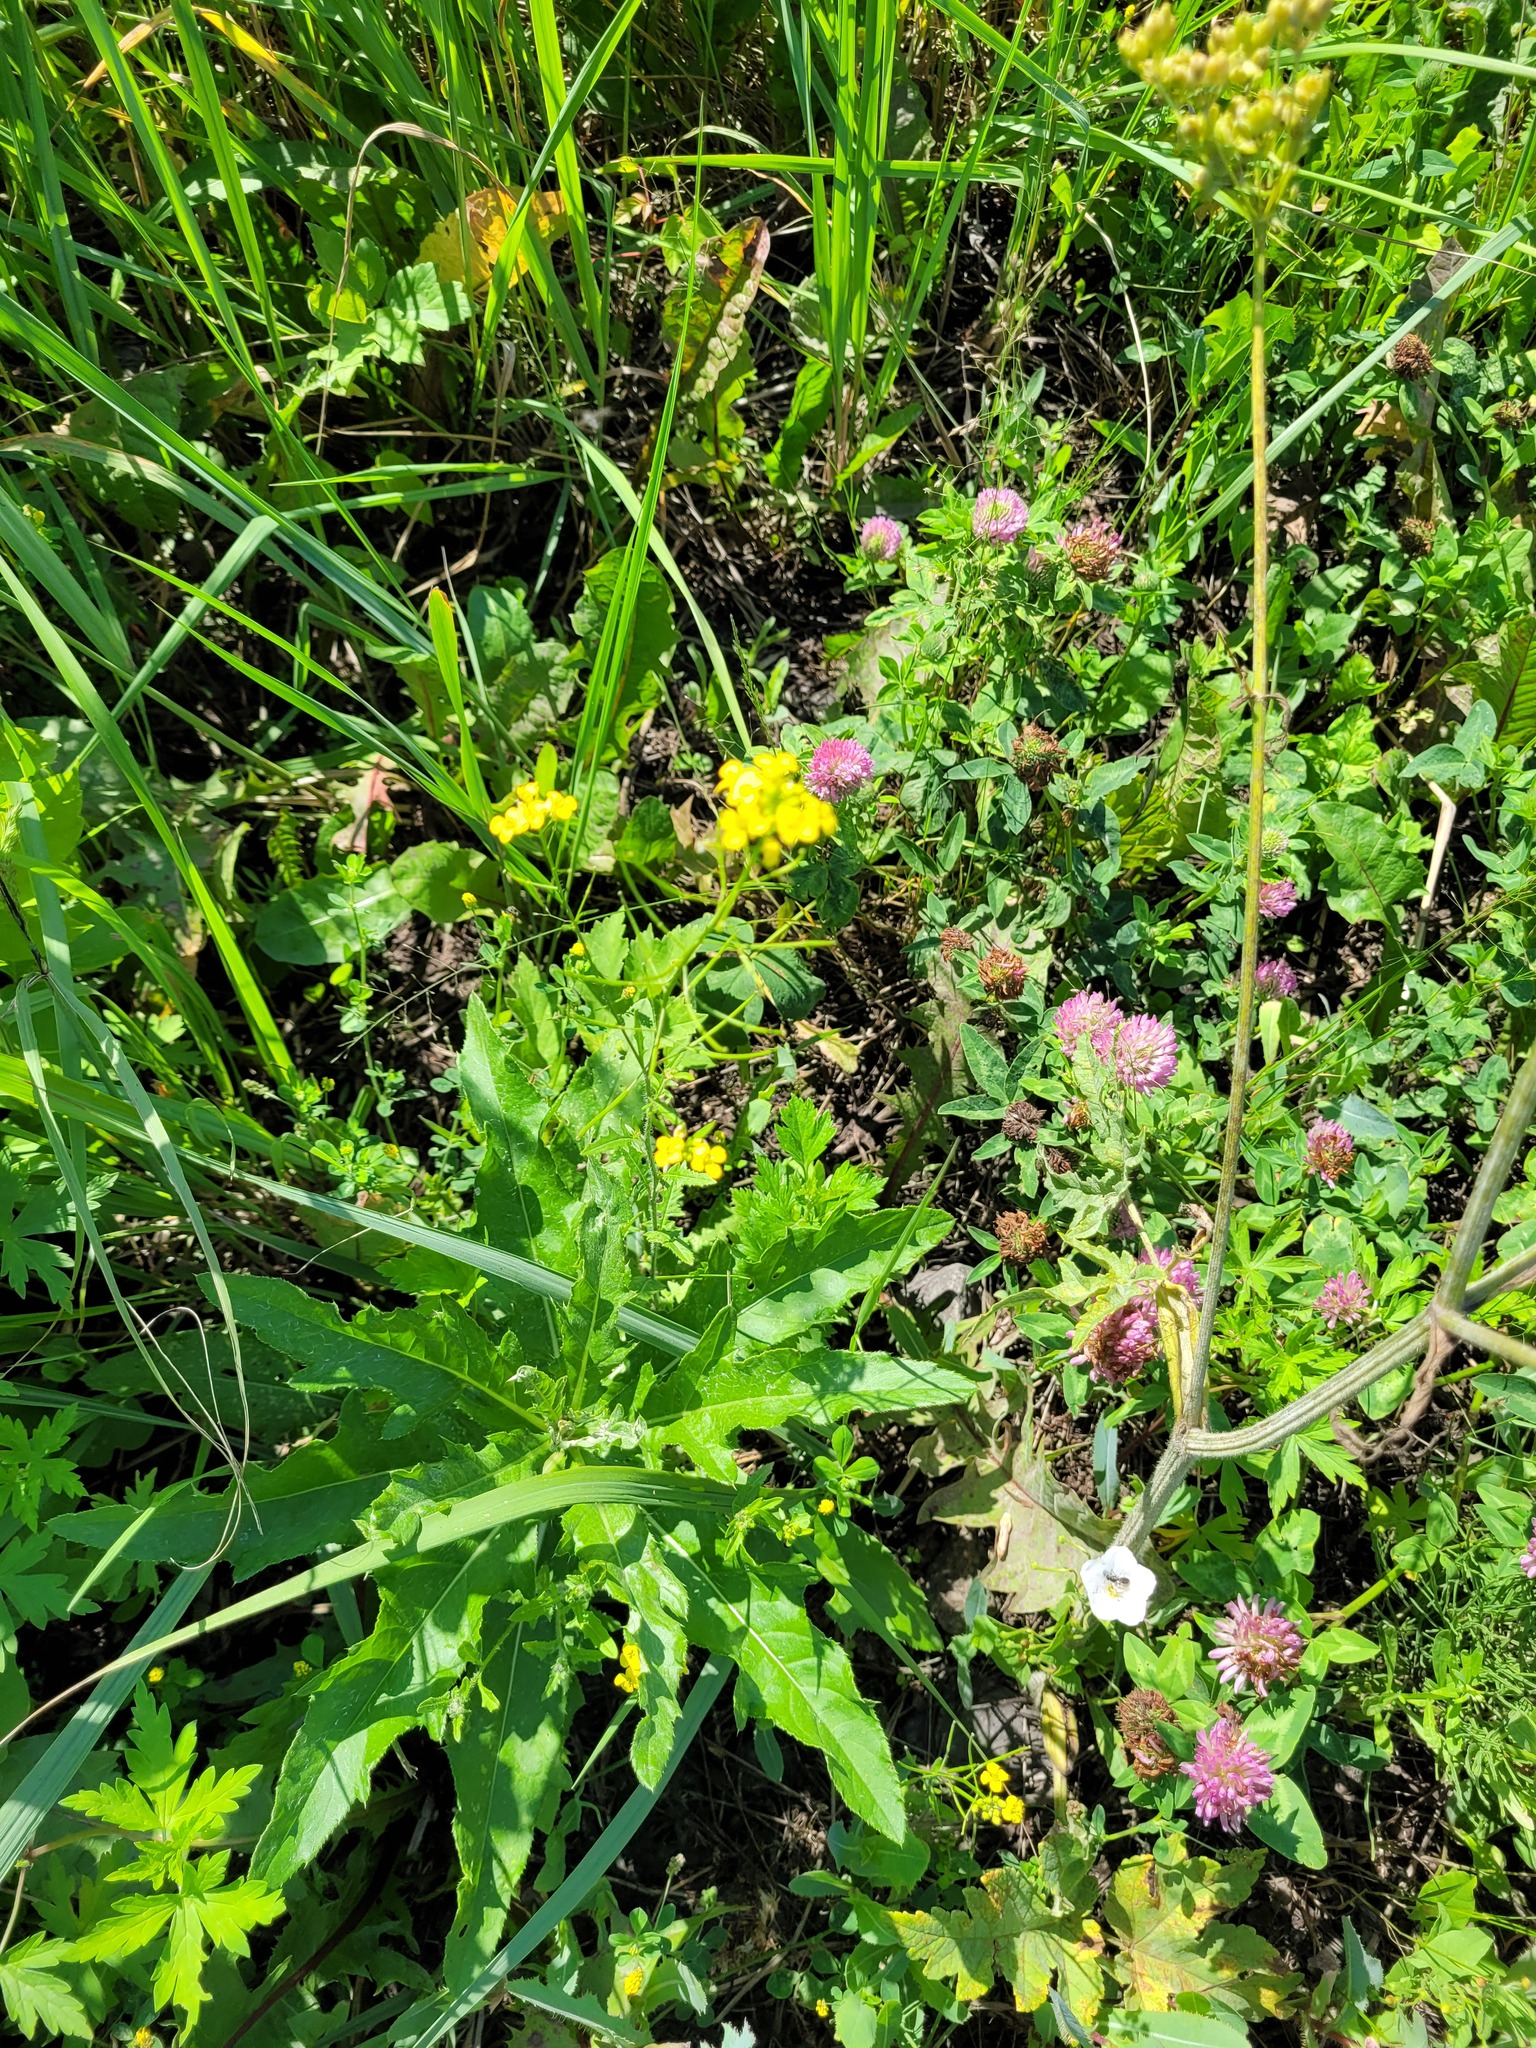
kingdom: Plantae
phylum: Tracheophyta
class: Magnoliopsida
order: Brassicales
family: Brassicaceae
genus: Sisymbrium
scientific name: Sisymbrium loeselii
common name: False london-rocket
